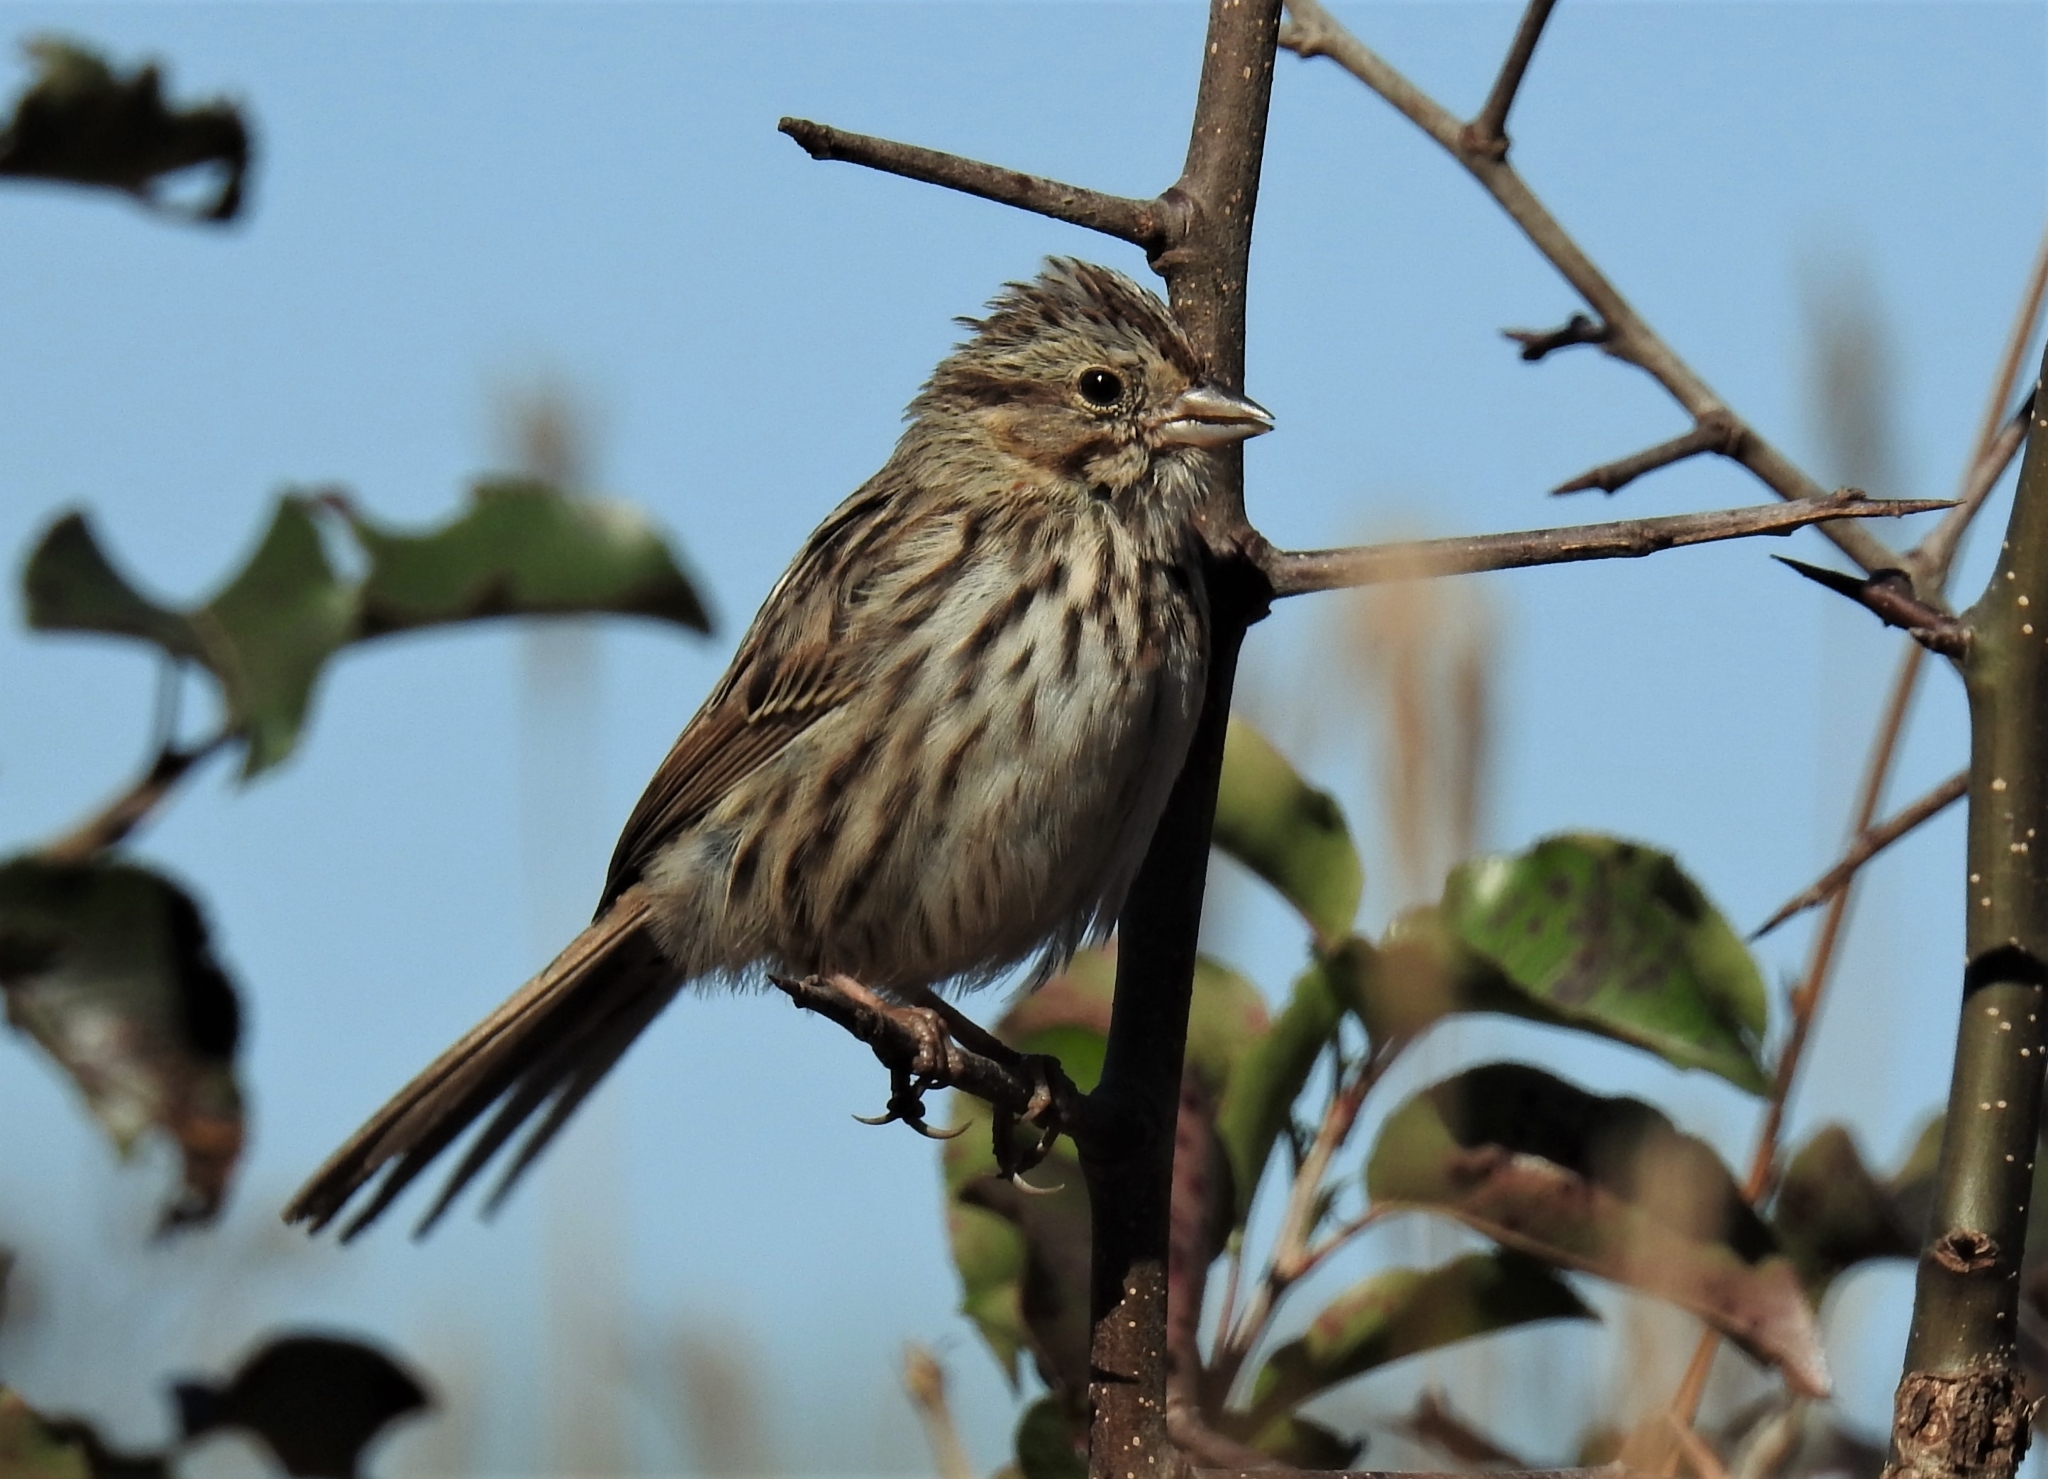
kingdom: Animalia
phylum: Chordata
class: Aves
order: Passeriformes
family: Passerellidae
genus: Melospiza
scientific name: Melospiza melodia
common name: Song sparrow
